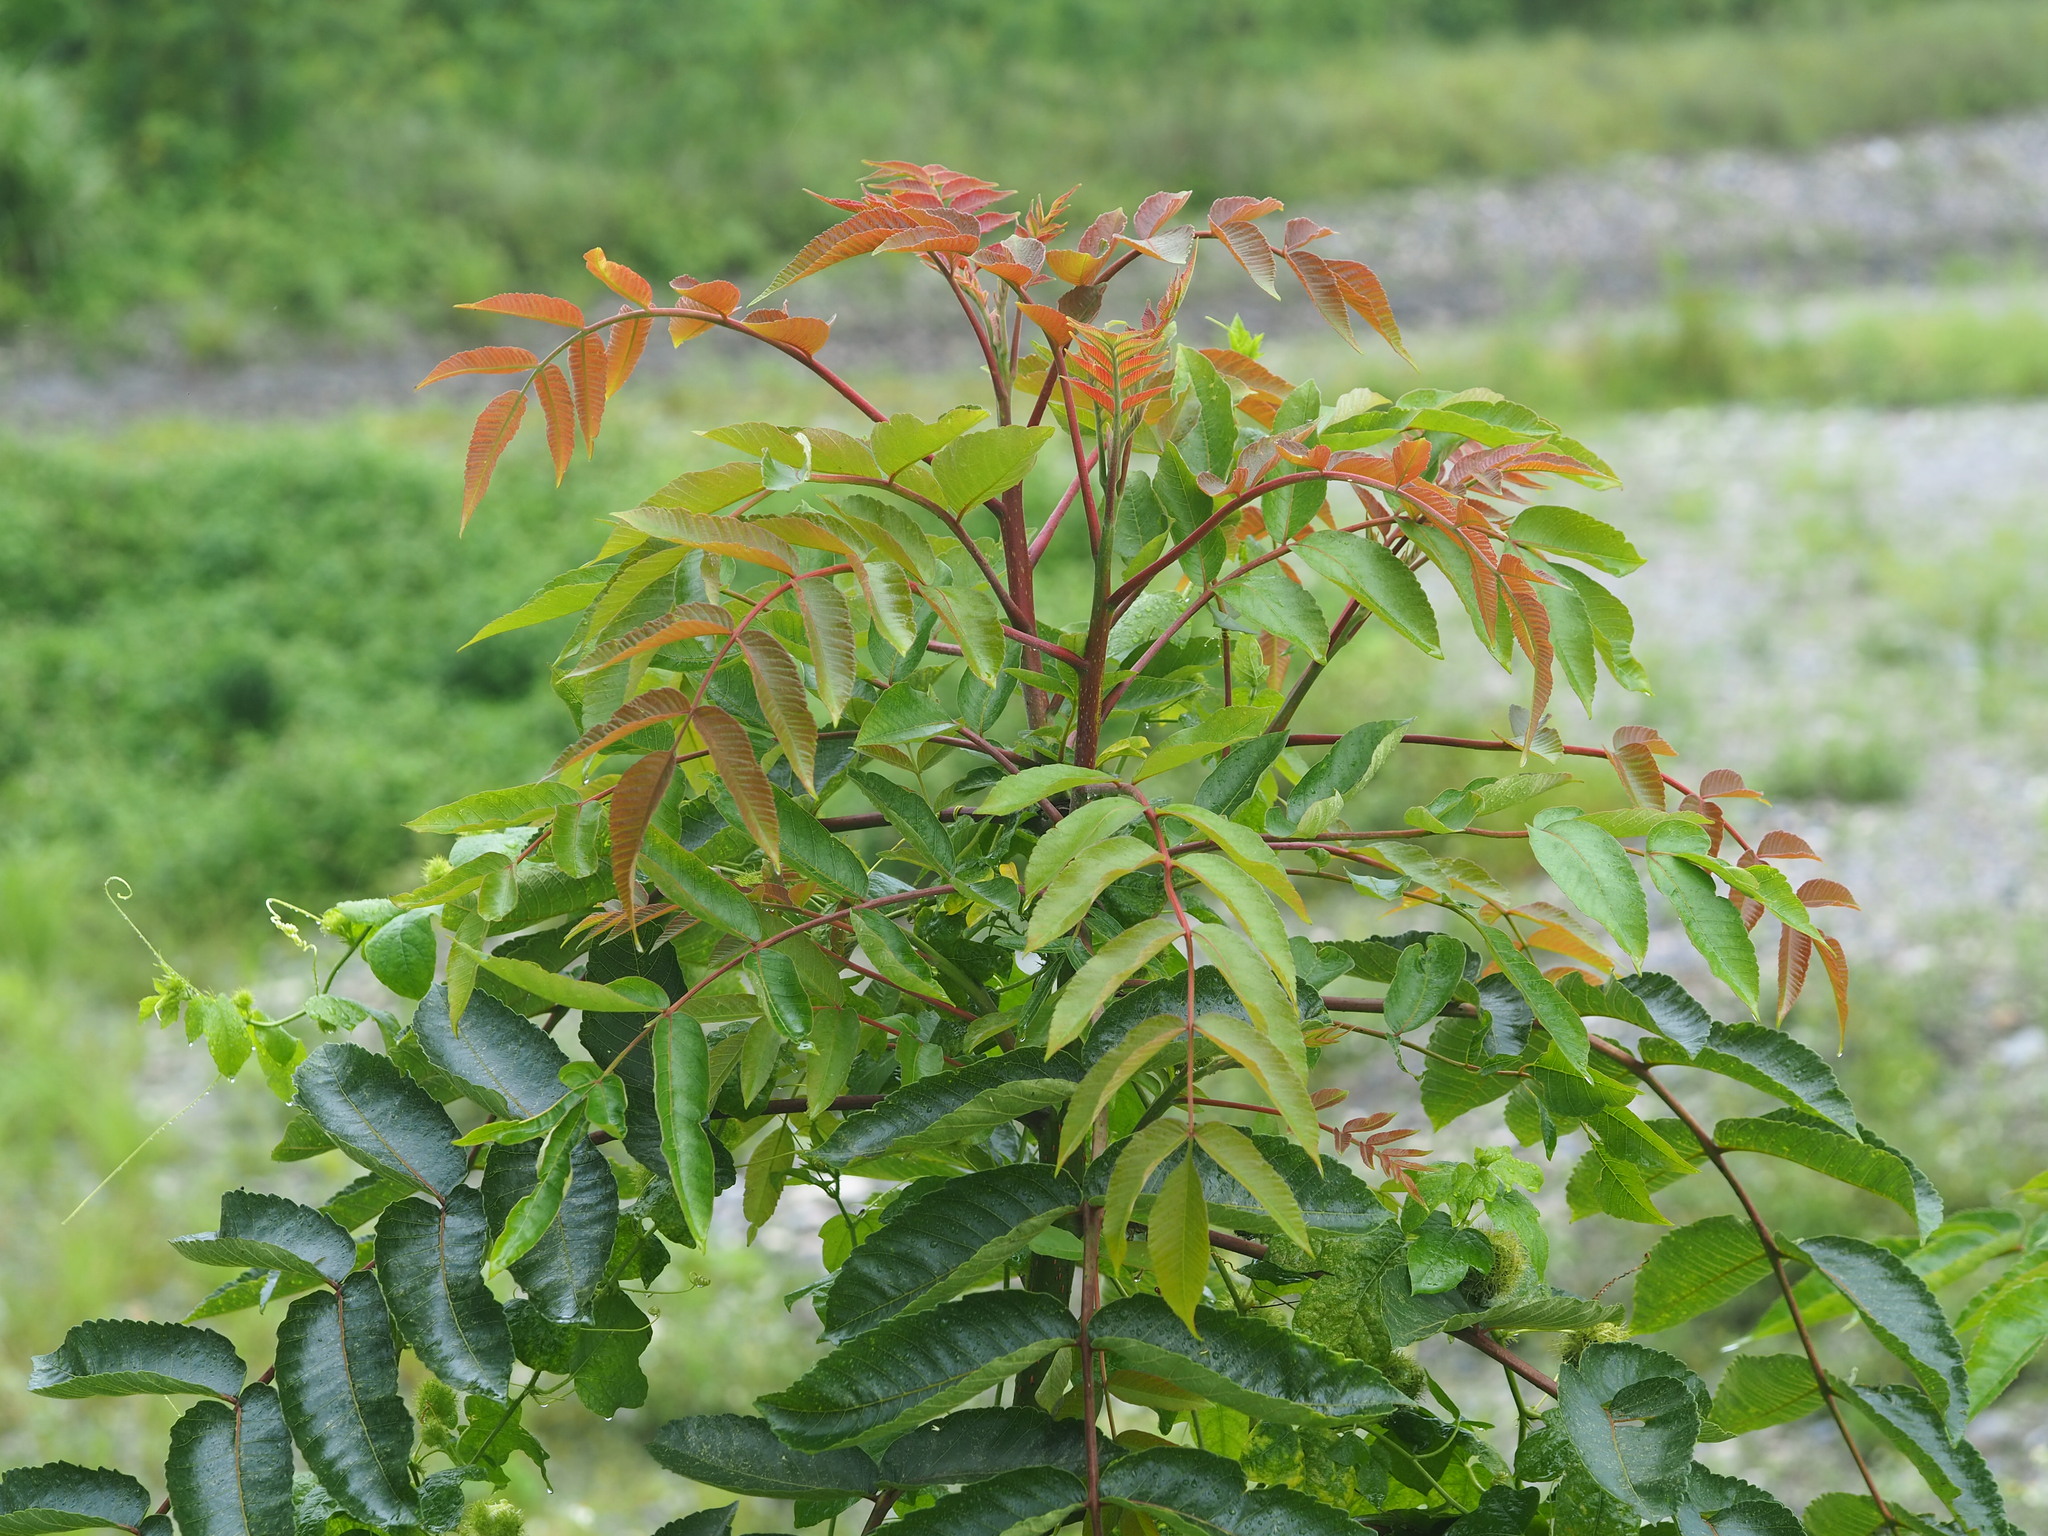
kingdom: Plantae
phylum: Tracheophyta
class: Magnoliopsida
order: Sapindales
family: Anacardiaceae
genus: Rhus
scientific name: Rhus chinensis
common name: Chinese gall
